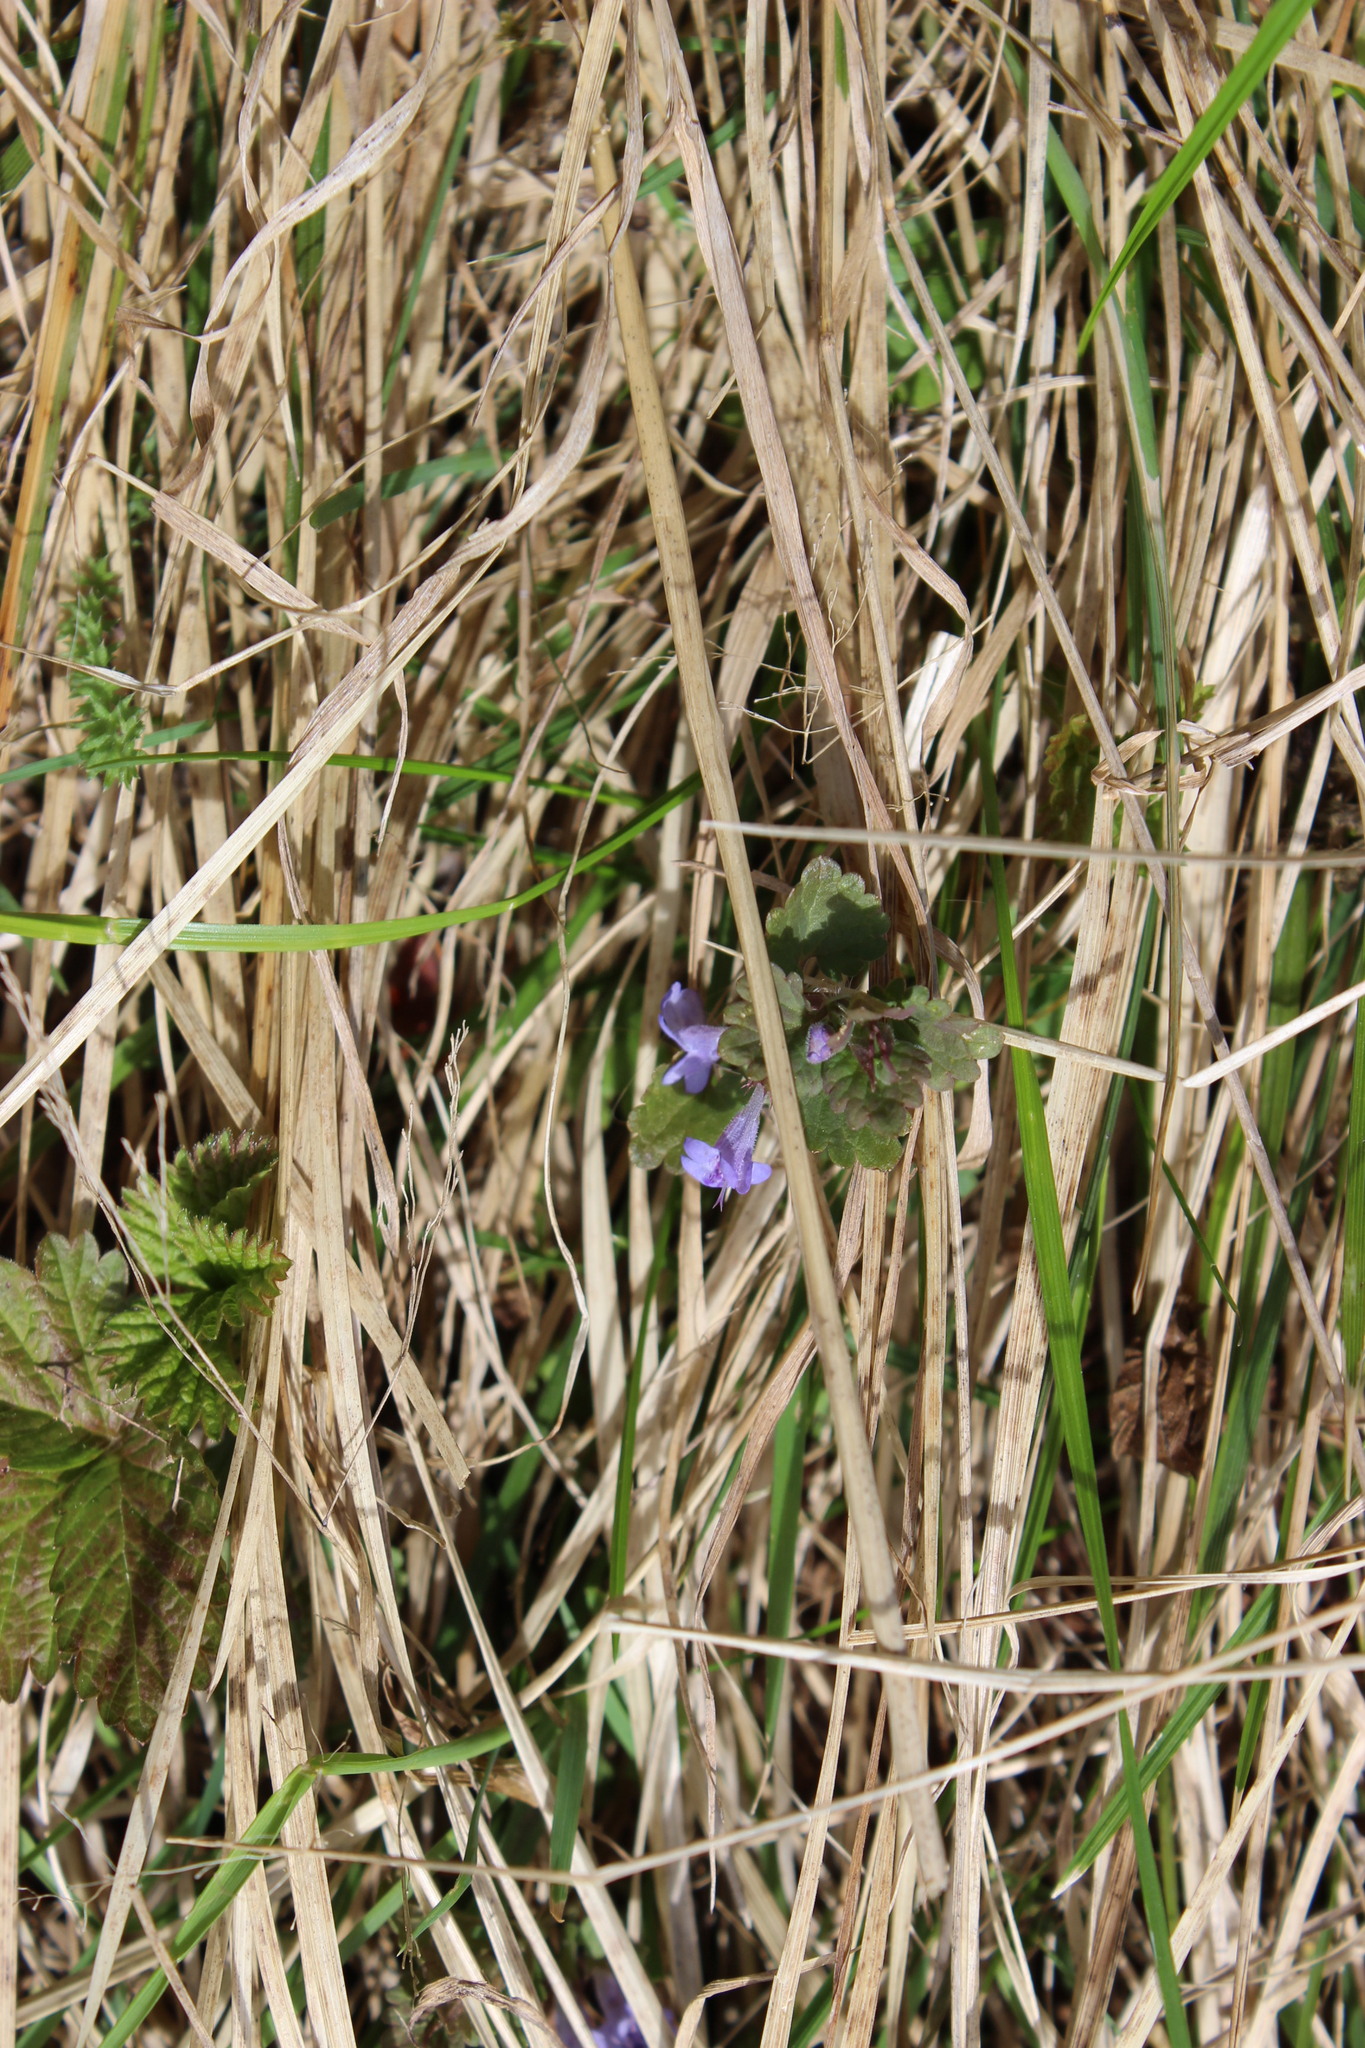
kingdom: Plantae
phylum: Tracheophyta
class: Magnoliopsida
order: Lamiales
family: Lamiaceae
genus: Glechoma
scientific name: Glechoma hederacea
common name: Ground ivy
